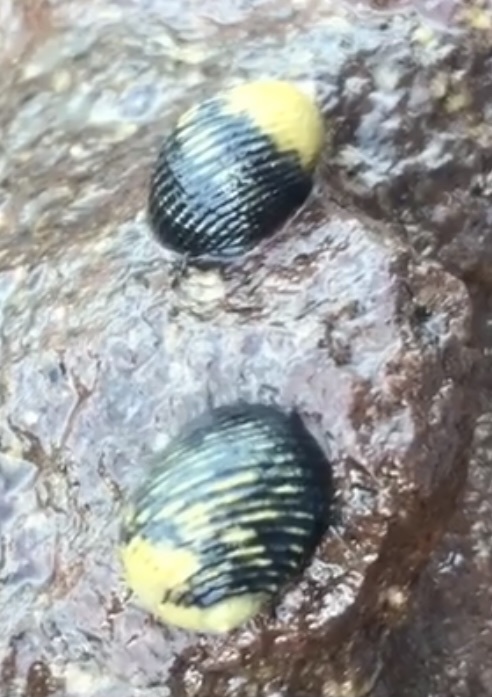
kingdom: Animalia
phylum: Mollusca
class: Gastropoda
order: Cycloneritida
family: Neritidae
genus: Nerita
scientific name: Nerita scabricosta
